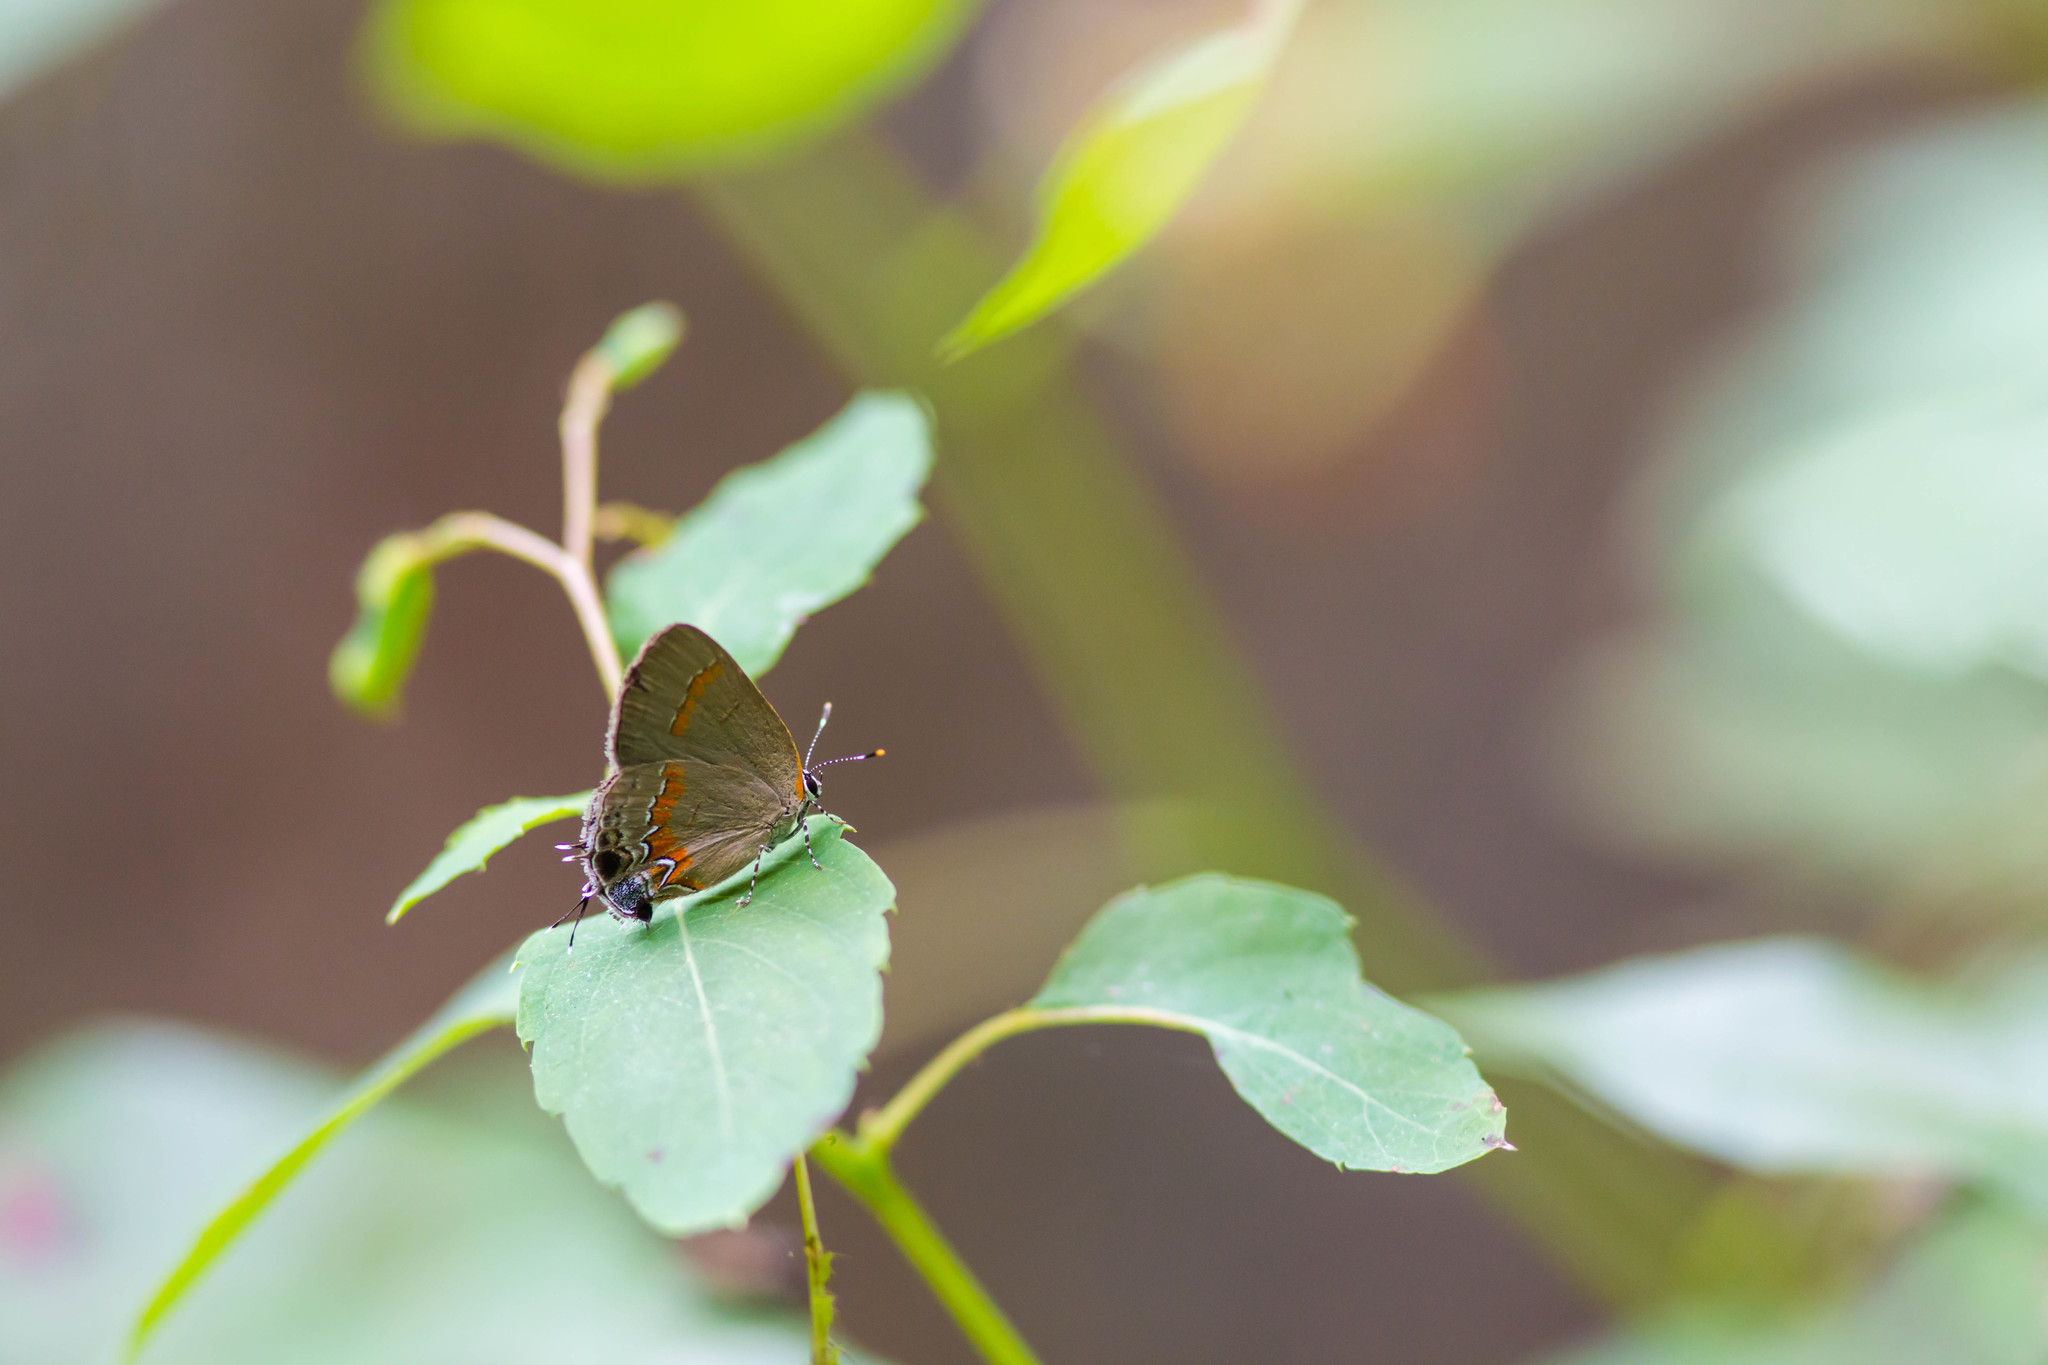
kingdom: Animalia
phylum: Arthropoda
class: Insecta
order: Lepidoptera
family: Lycaenidae
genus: Calycopis
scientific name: Calycopis cecrops
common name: Red-banded hairstreak
